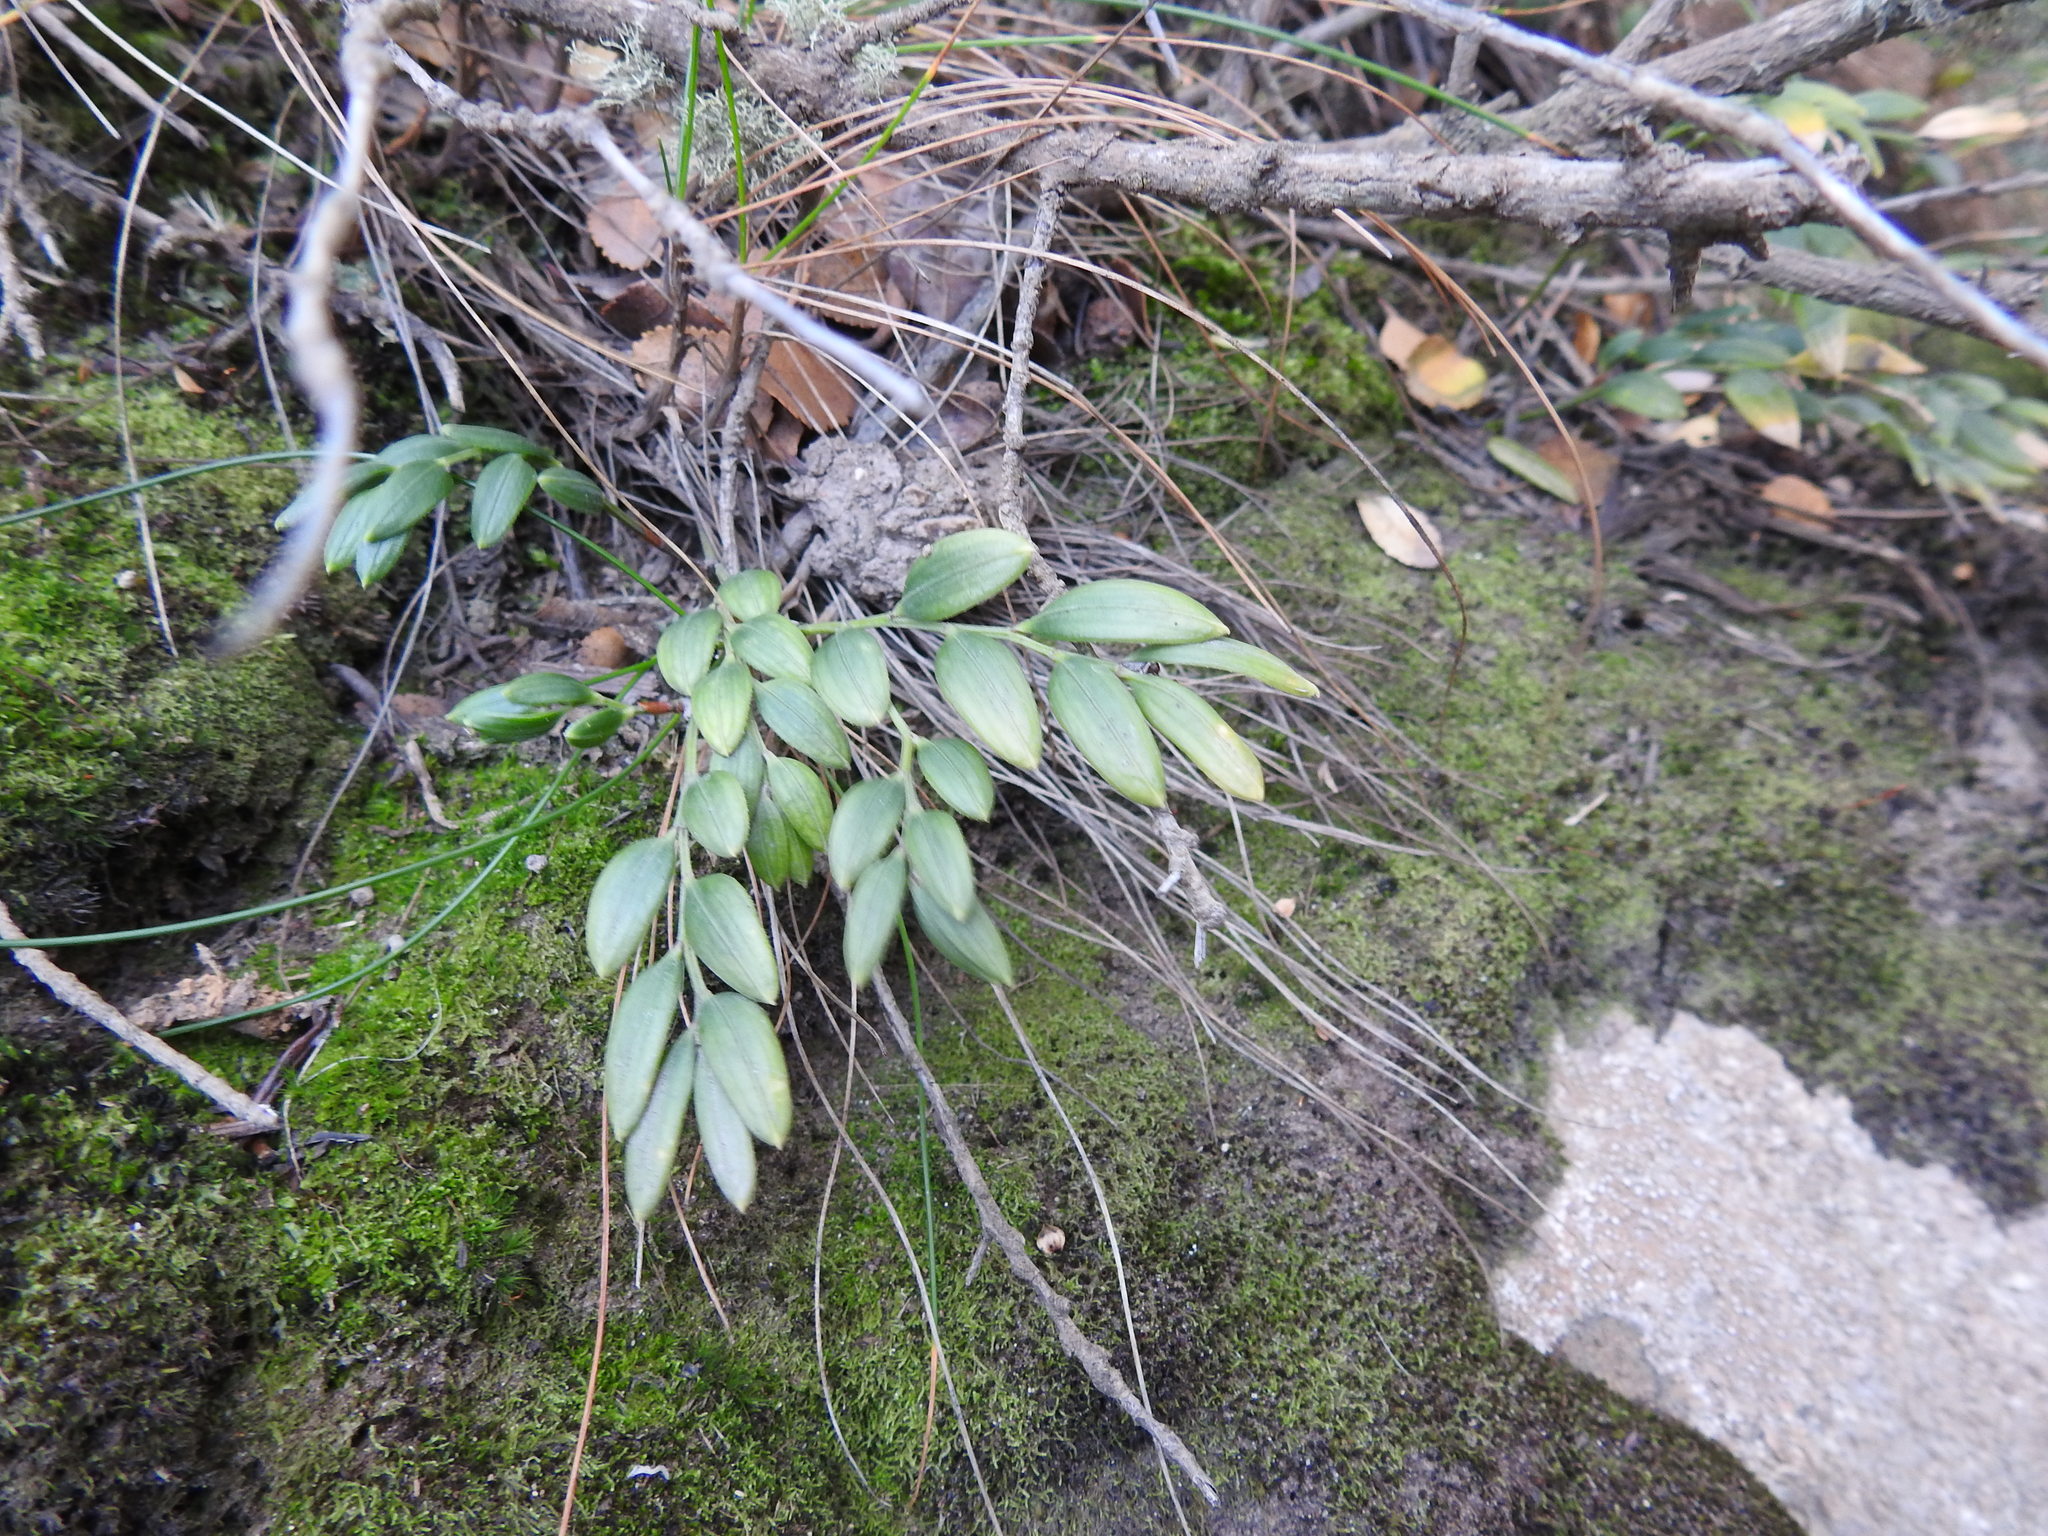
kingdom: Plantae
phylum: Tracheophyta
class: Liliopsida
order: Liliales
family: Alstroemeriaceae
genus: Luzuriaga
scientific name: Luzuriaga marginata
